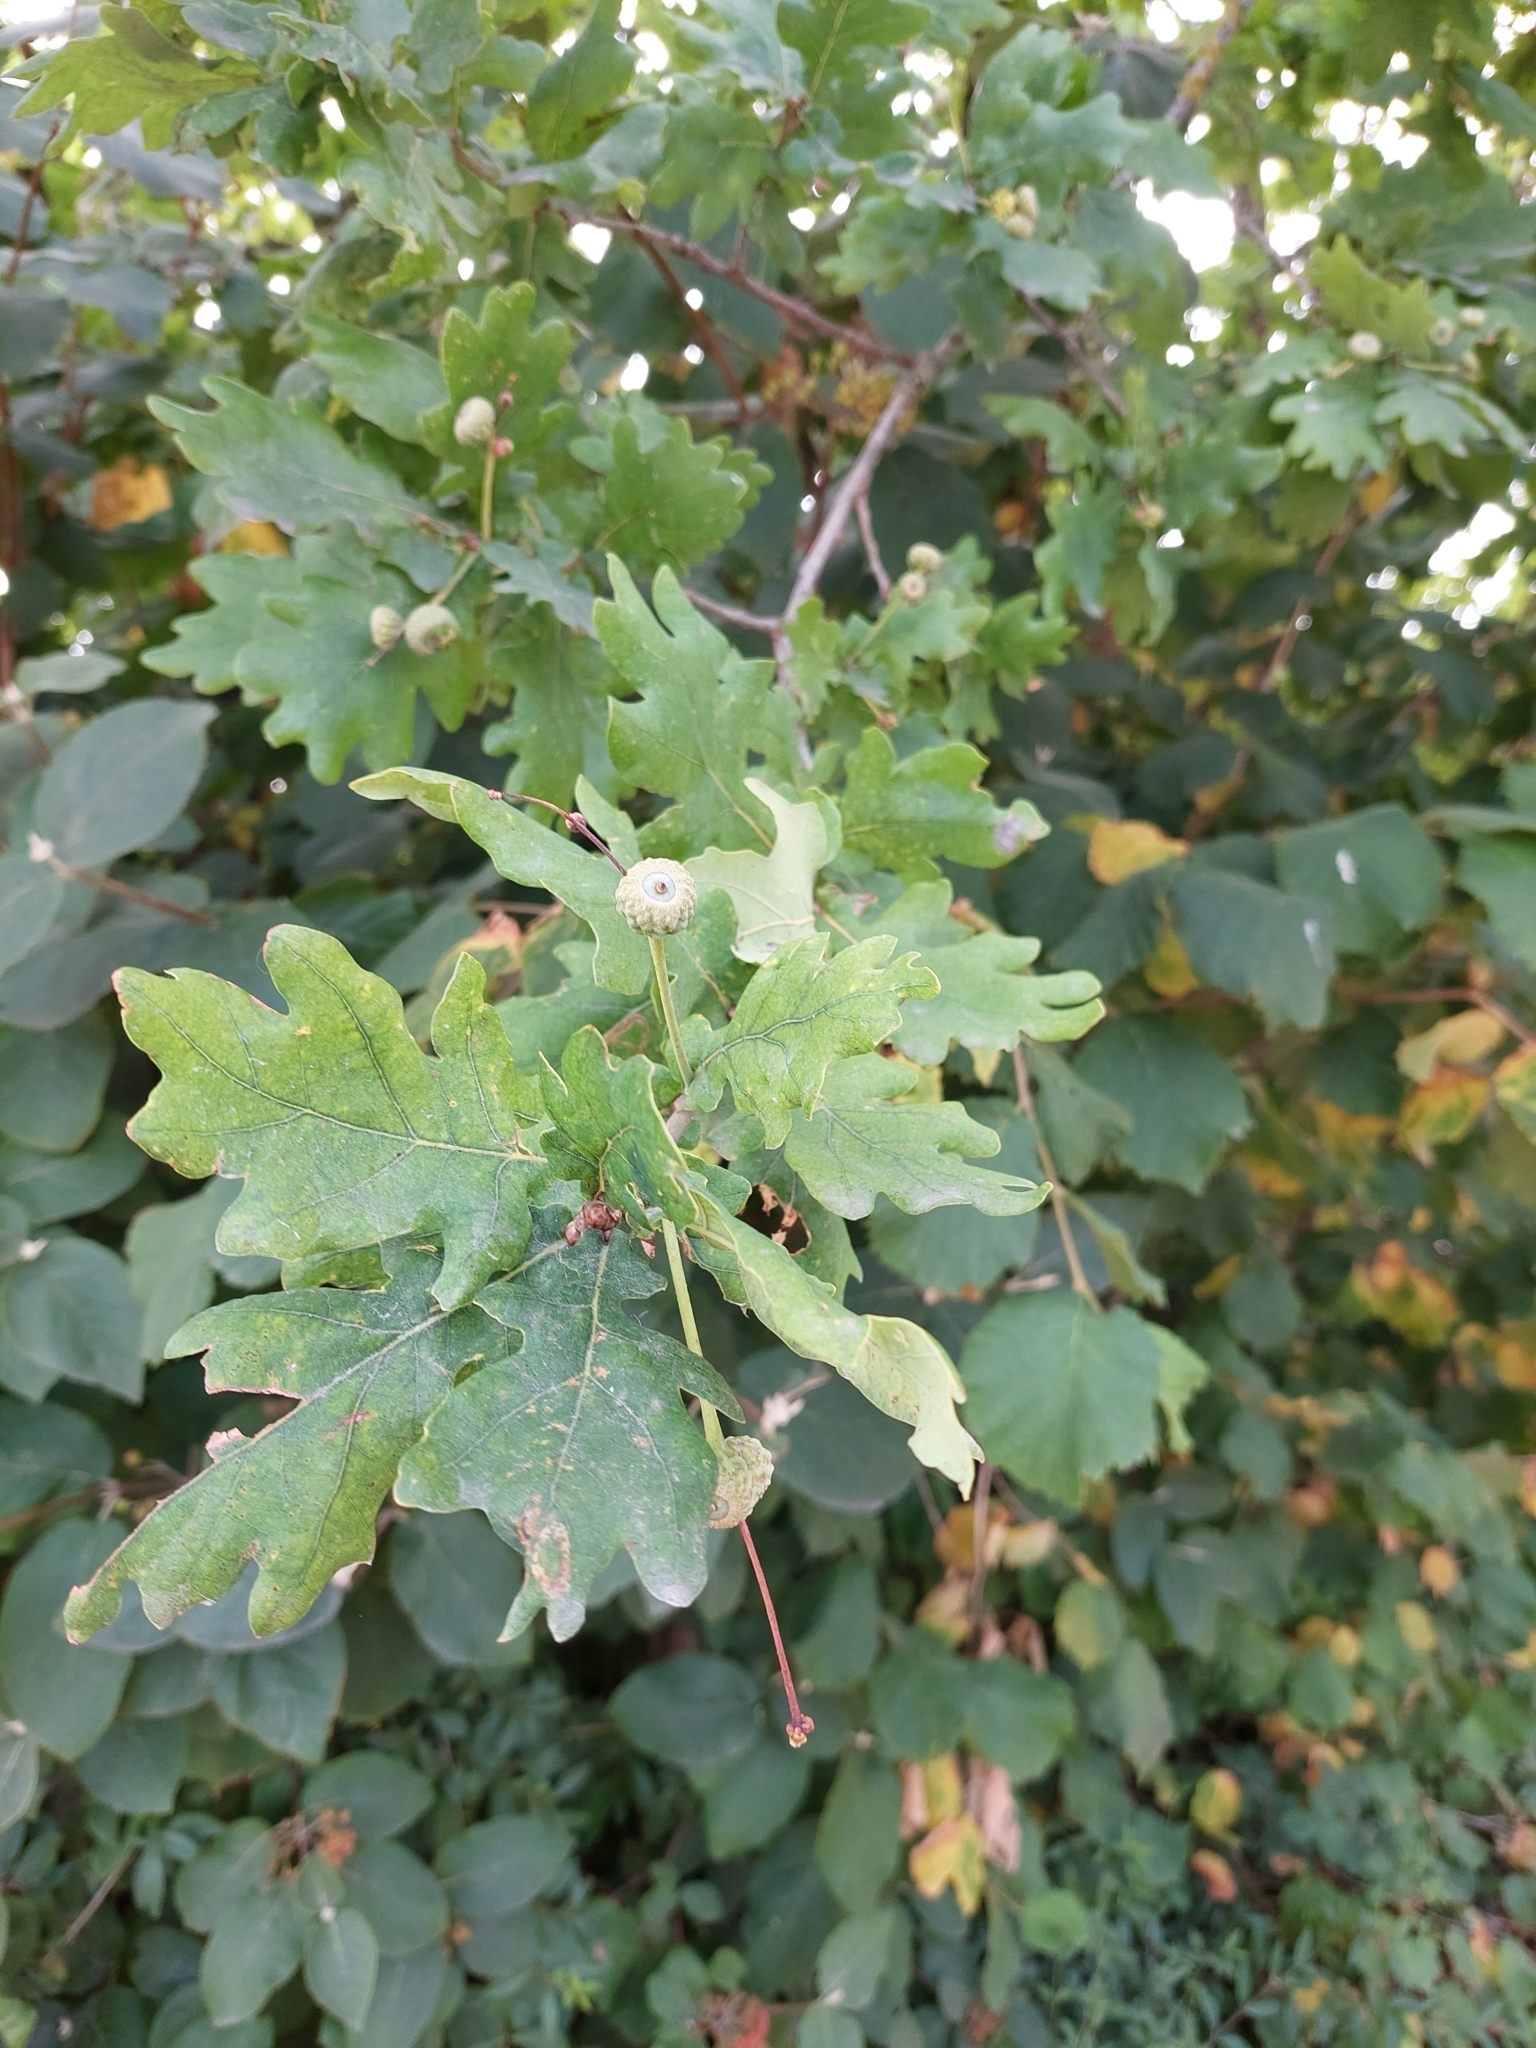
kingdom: Plantae
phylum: Tracheophyta
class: Magnoliopsida
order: Fagales
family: Fagaceae
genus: Quercus
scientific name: Quercus robur
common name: Pedunculate oak
